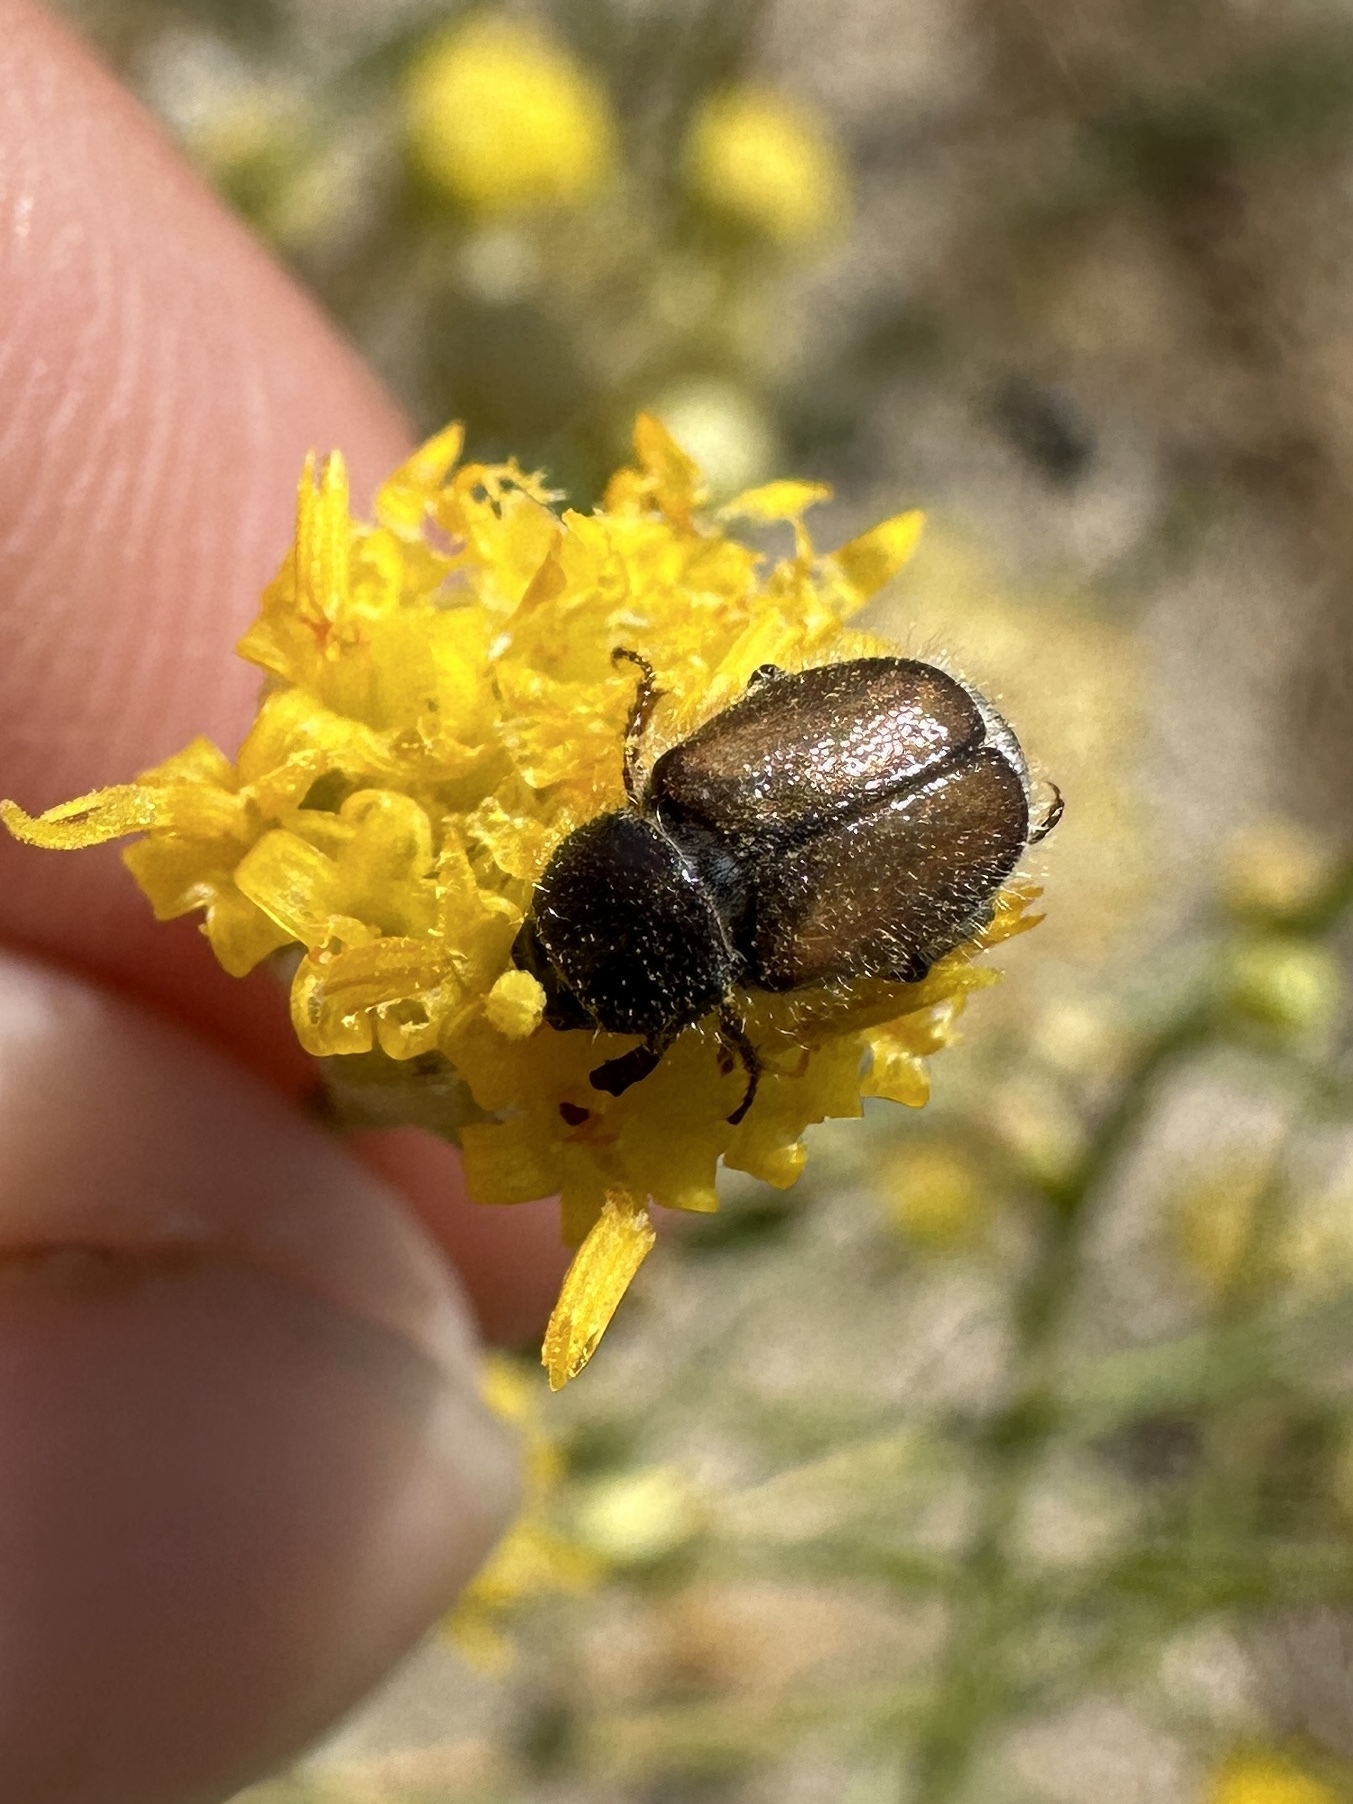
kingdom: Animalia
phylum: Arthropoda
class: Insecta
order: Coleoptera
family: Scarabaeidae
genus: Paracotalpa
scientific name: Paracotalpa ursina
